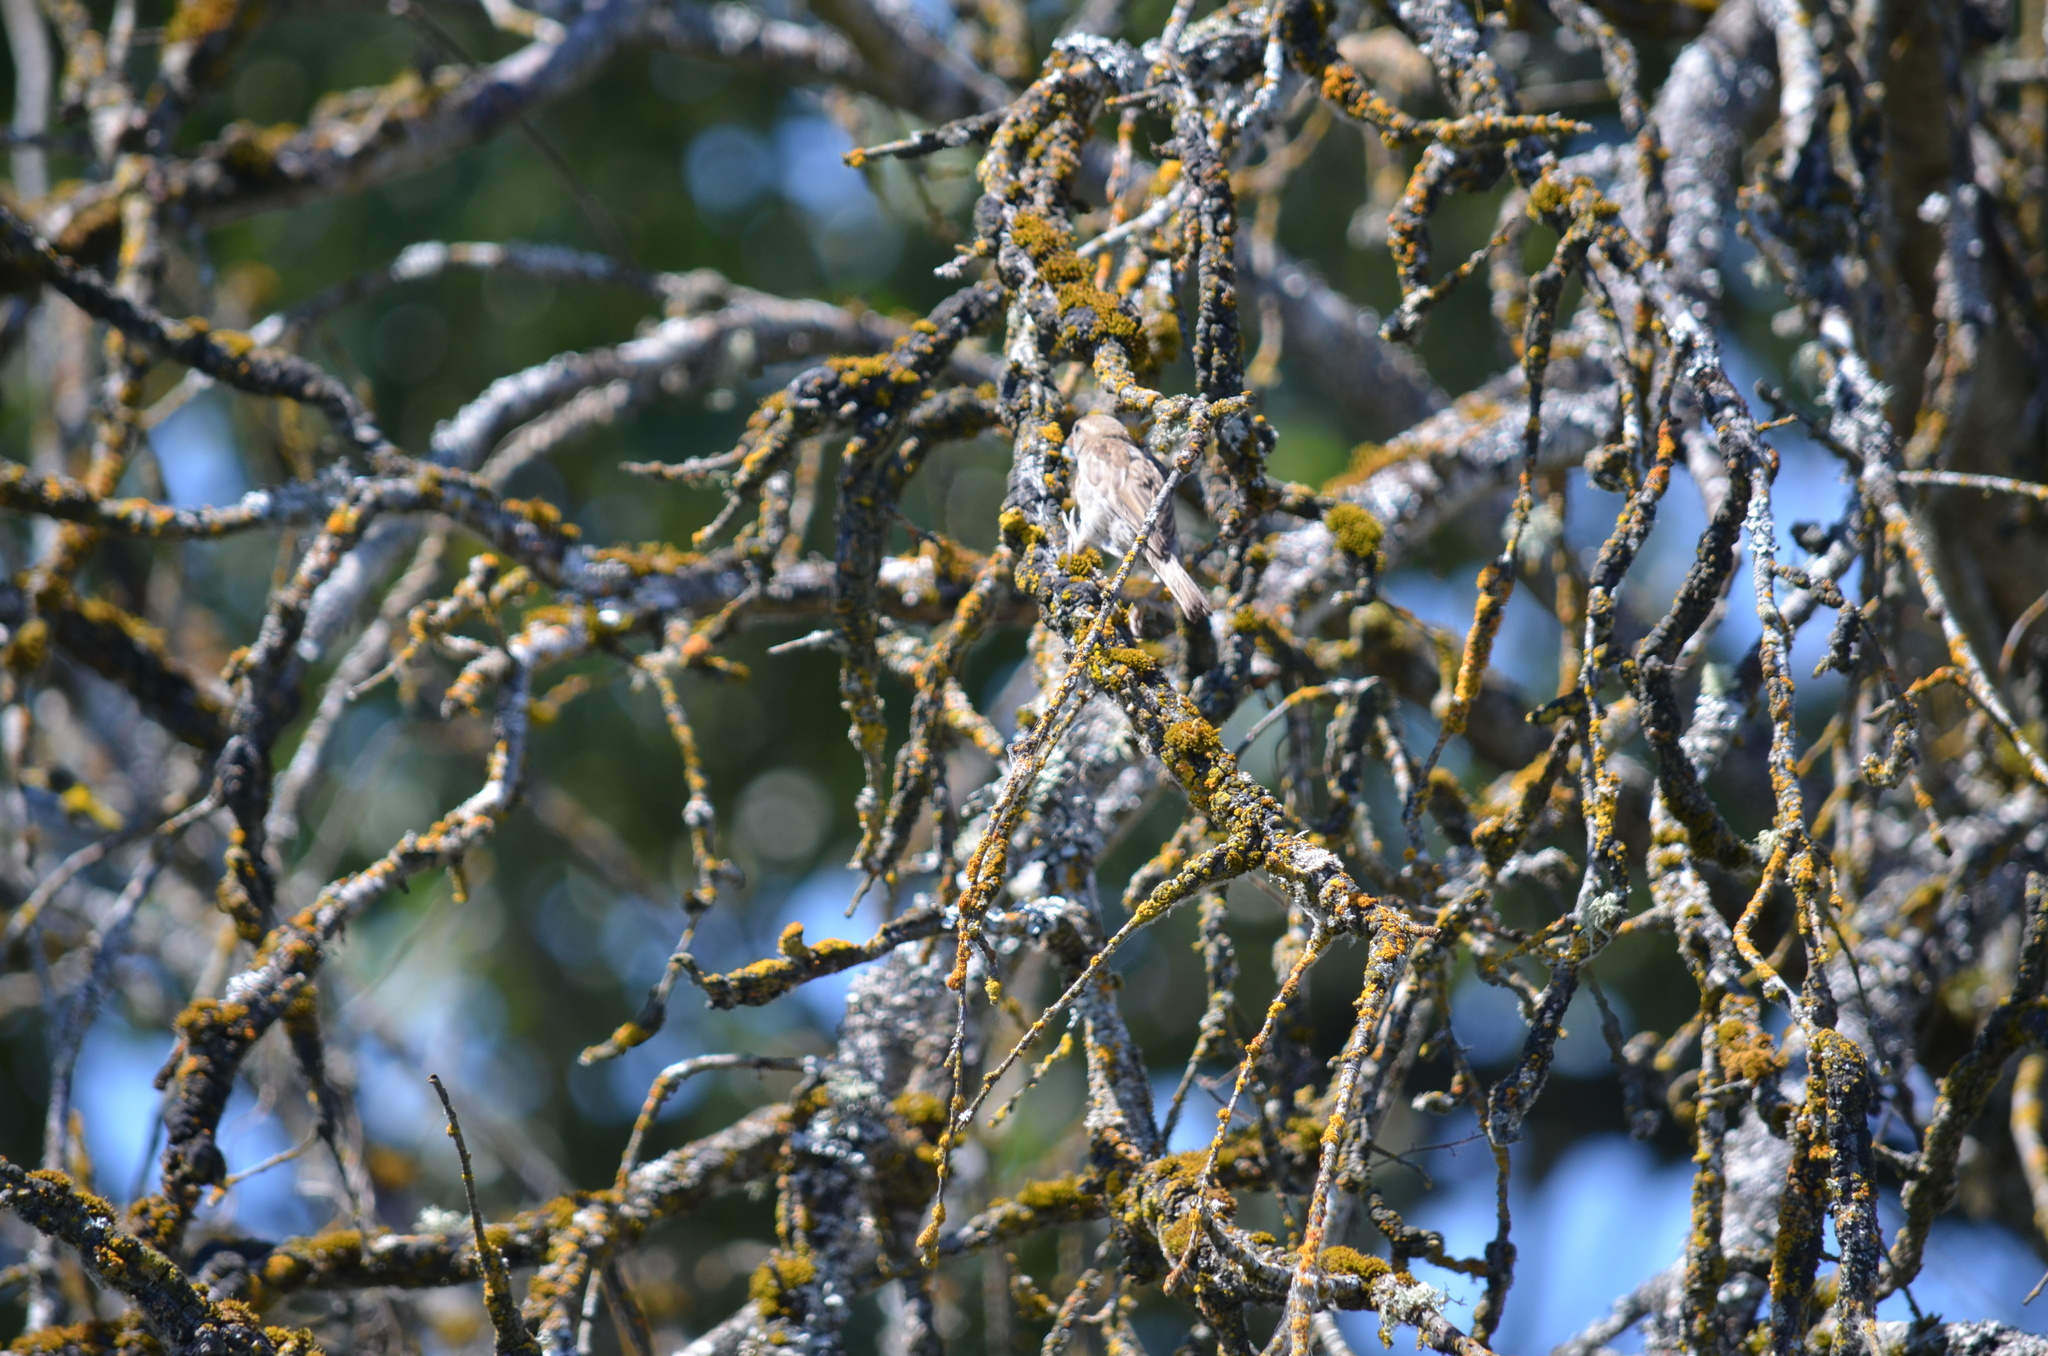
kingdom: Animalia
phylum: Chordata
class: Aves
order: Passeriformes
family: Passeridae
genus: Passer
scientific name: Passer domesticus
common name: House sparrow
